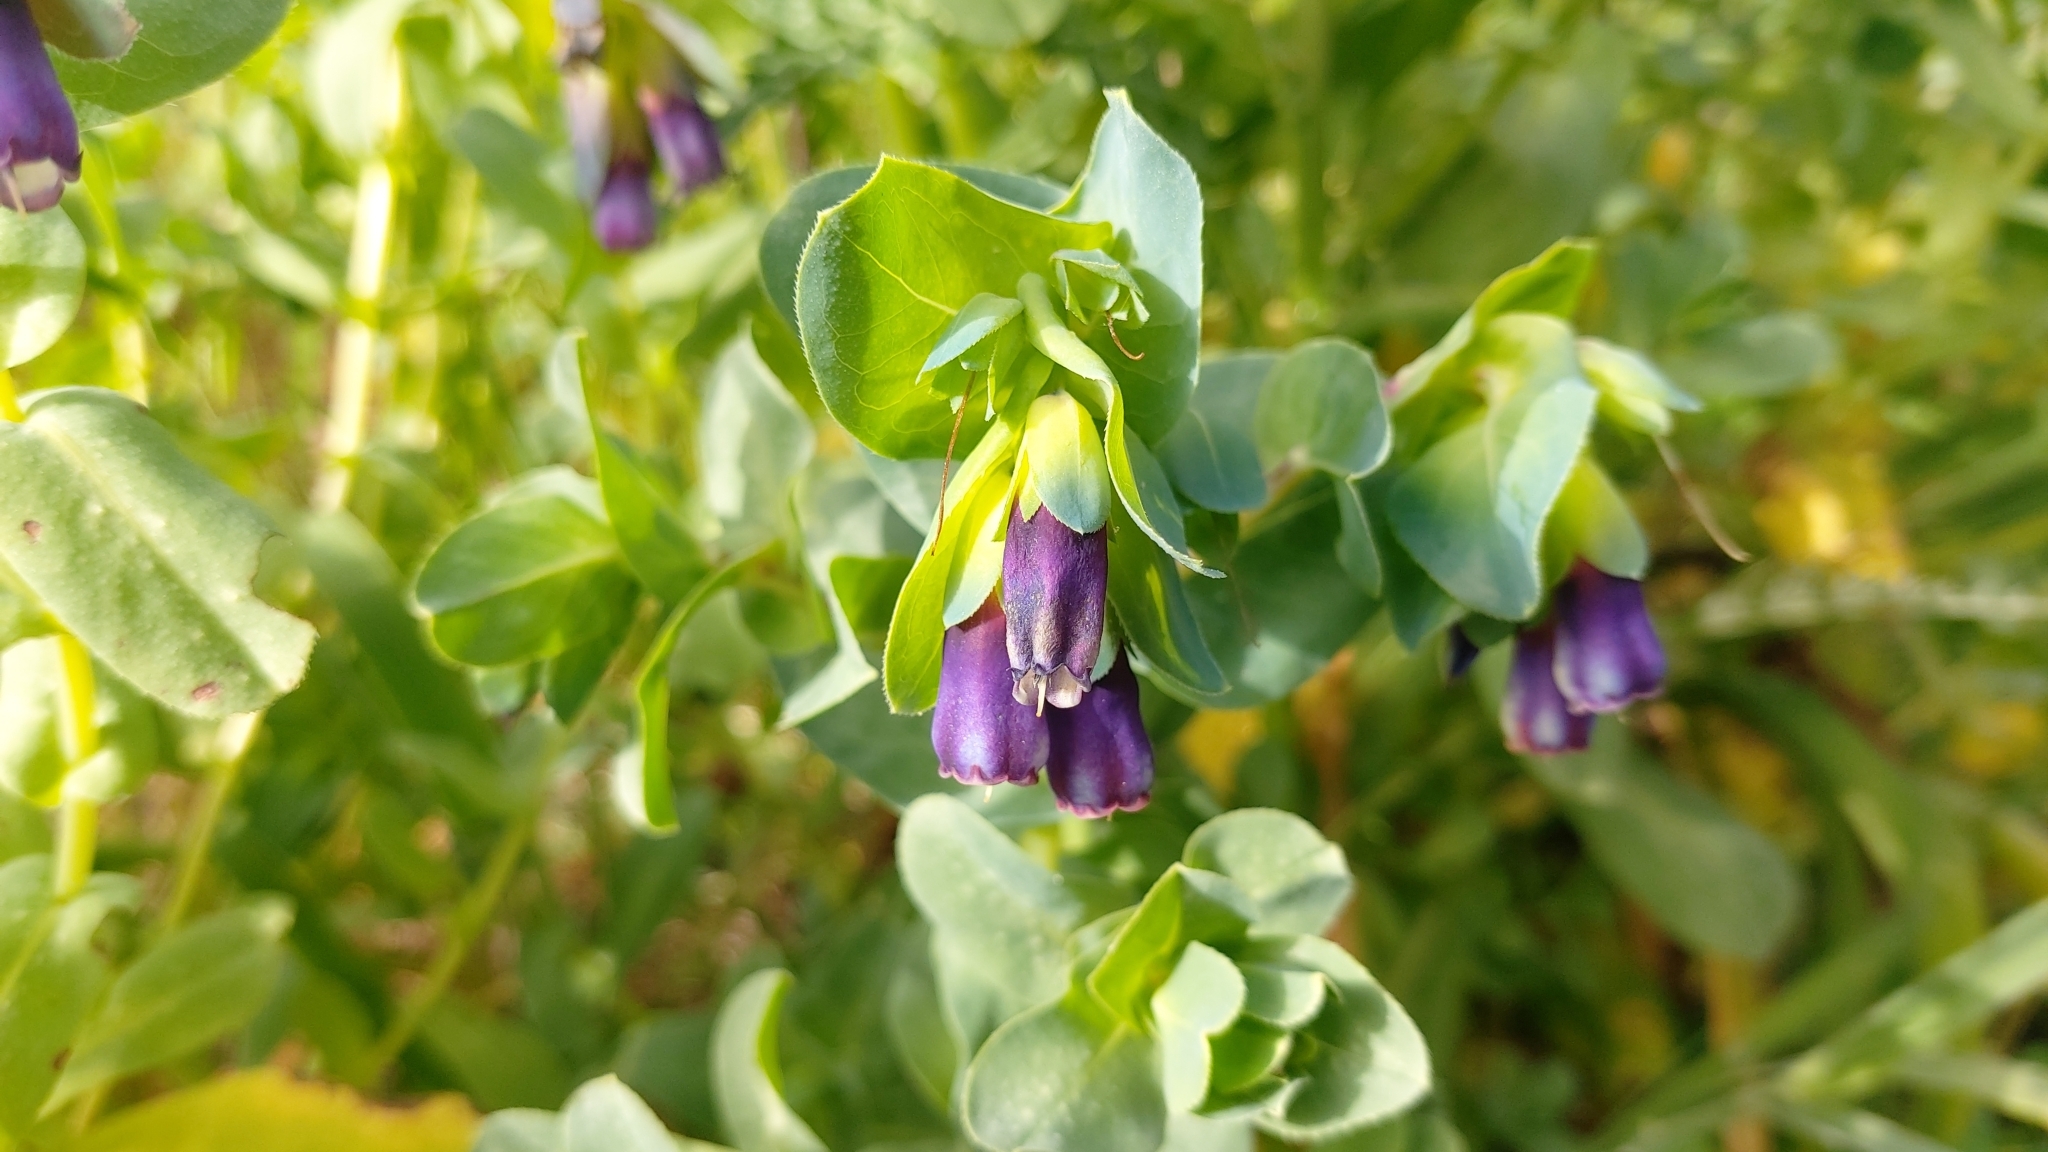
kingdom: Plantae
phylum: Tracheophyta
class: Magnoliopsida
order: Boraginales
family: Boraginaceae
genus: Cerinthe
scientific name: Cerinthe major
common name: Greater honeywort
